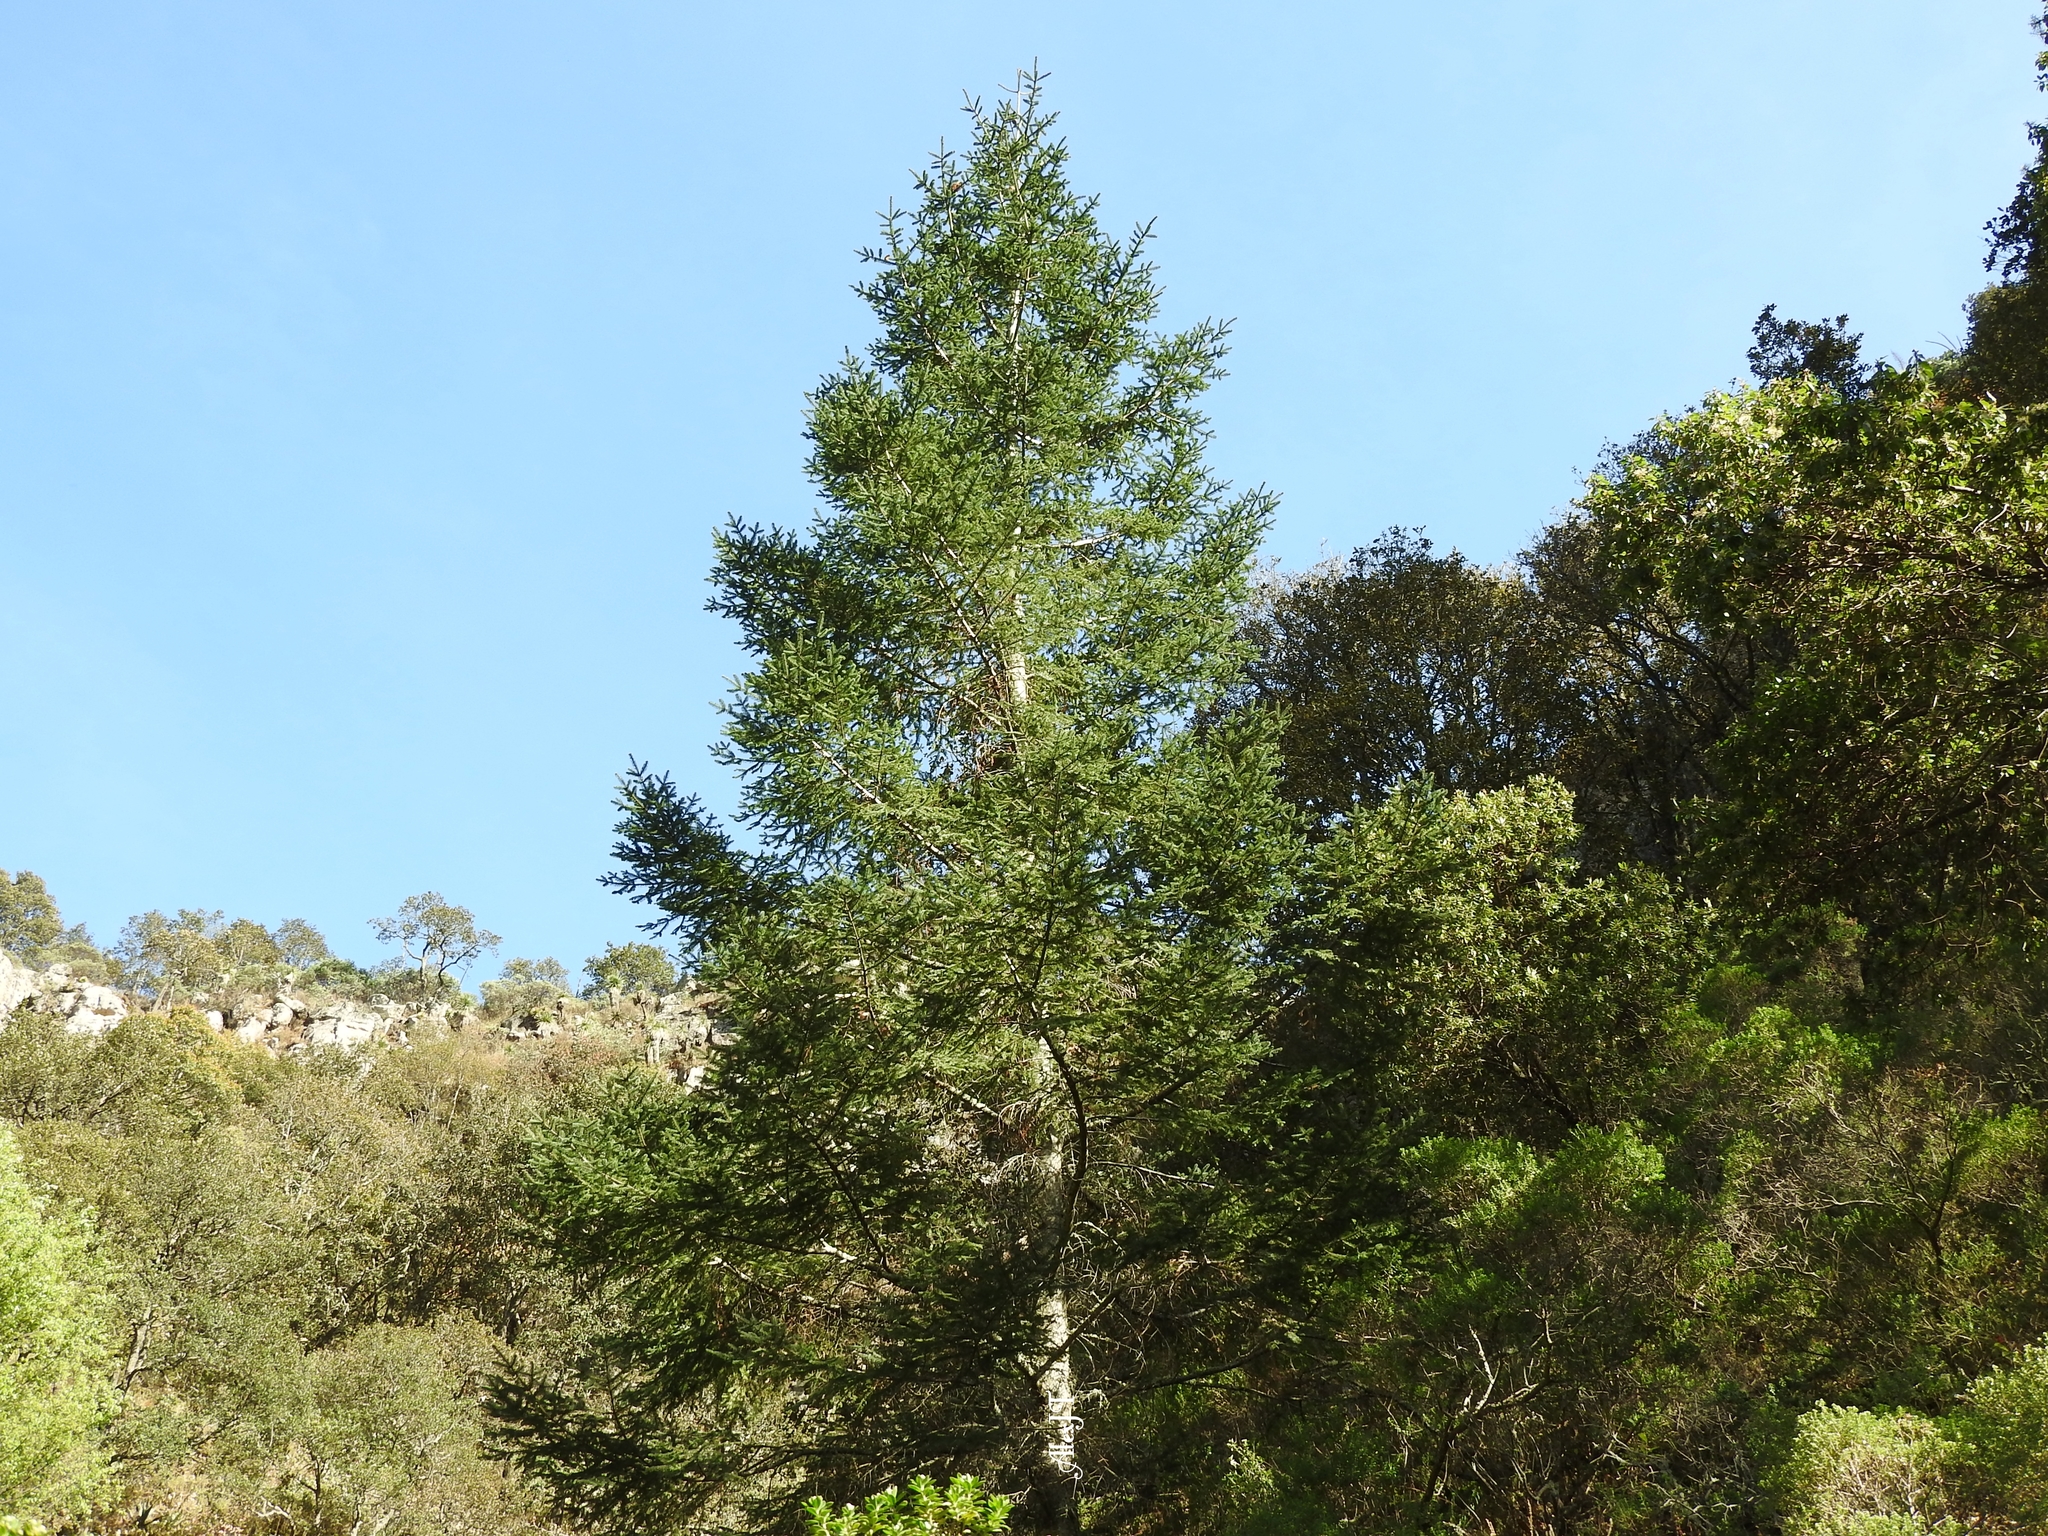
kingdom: Plantae
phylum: Tracheophyta
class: Pinopsida
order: Pinales
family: Pinaceae
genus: Abies
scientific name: Abies religiosa
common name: Sacred fir
